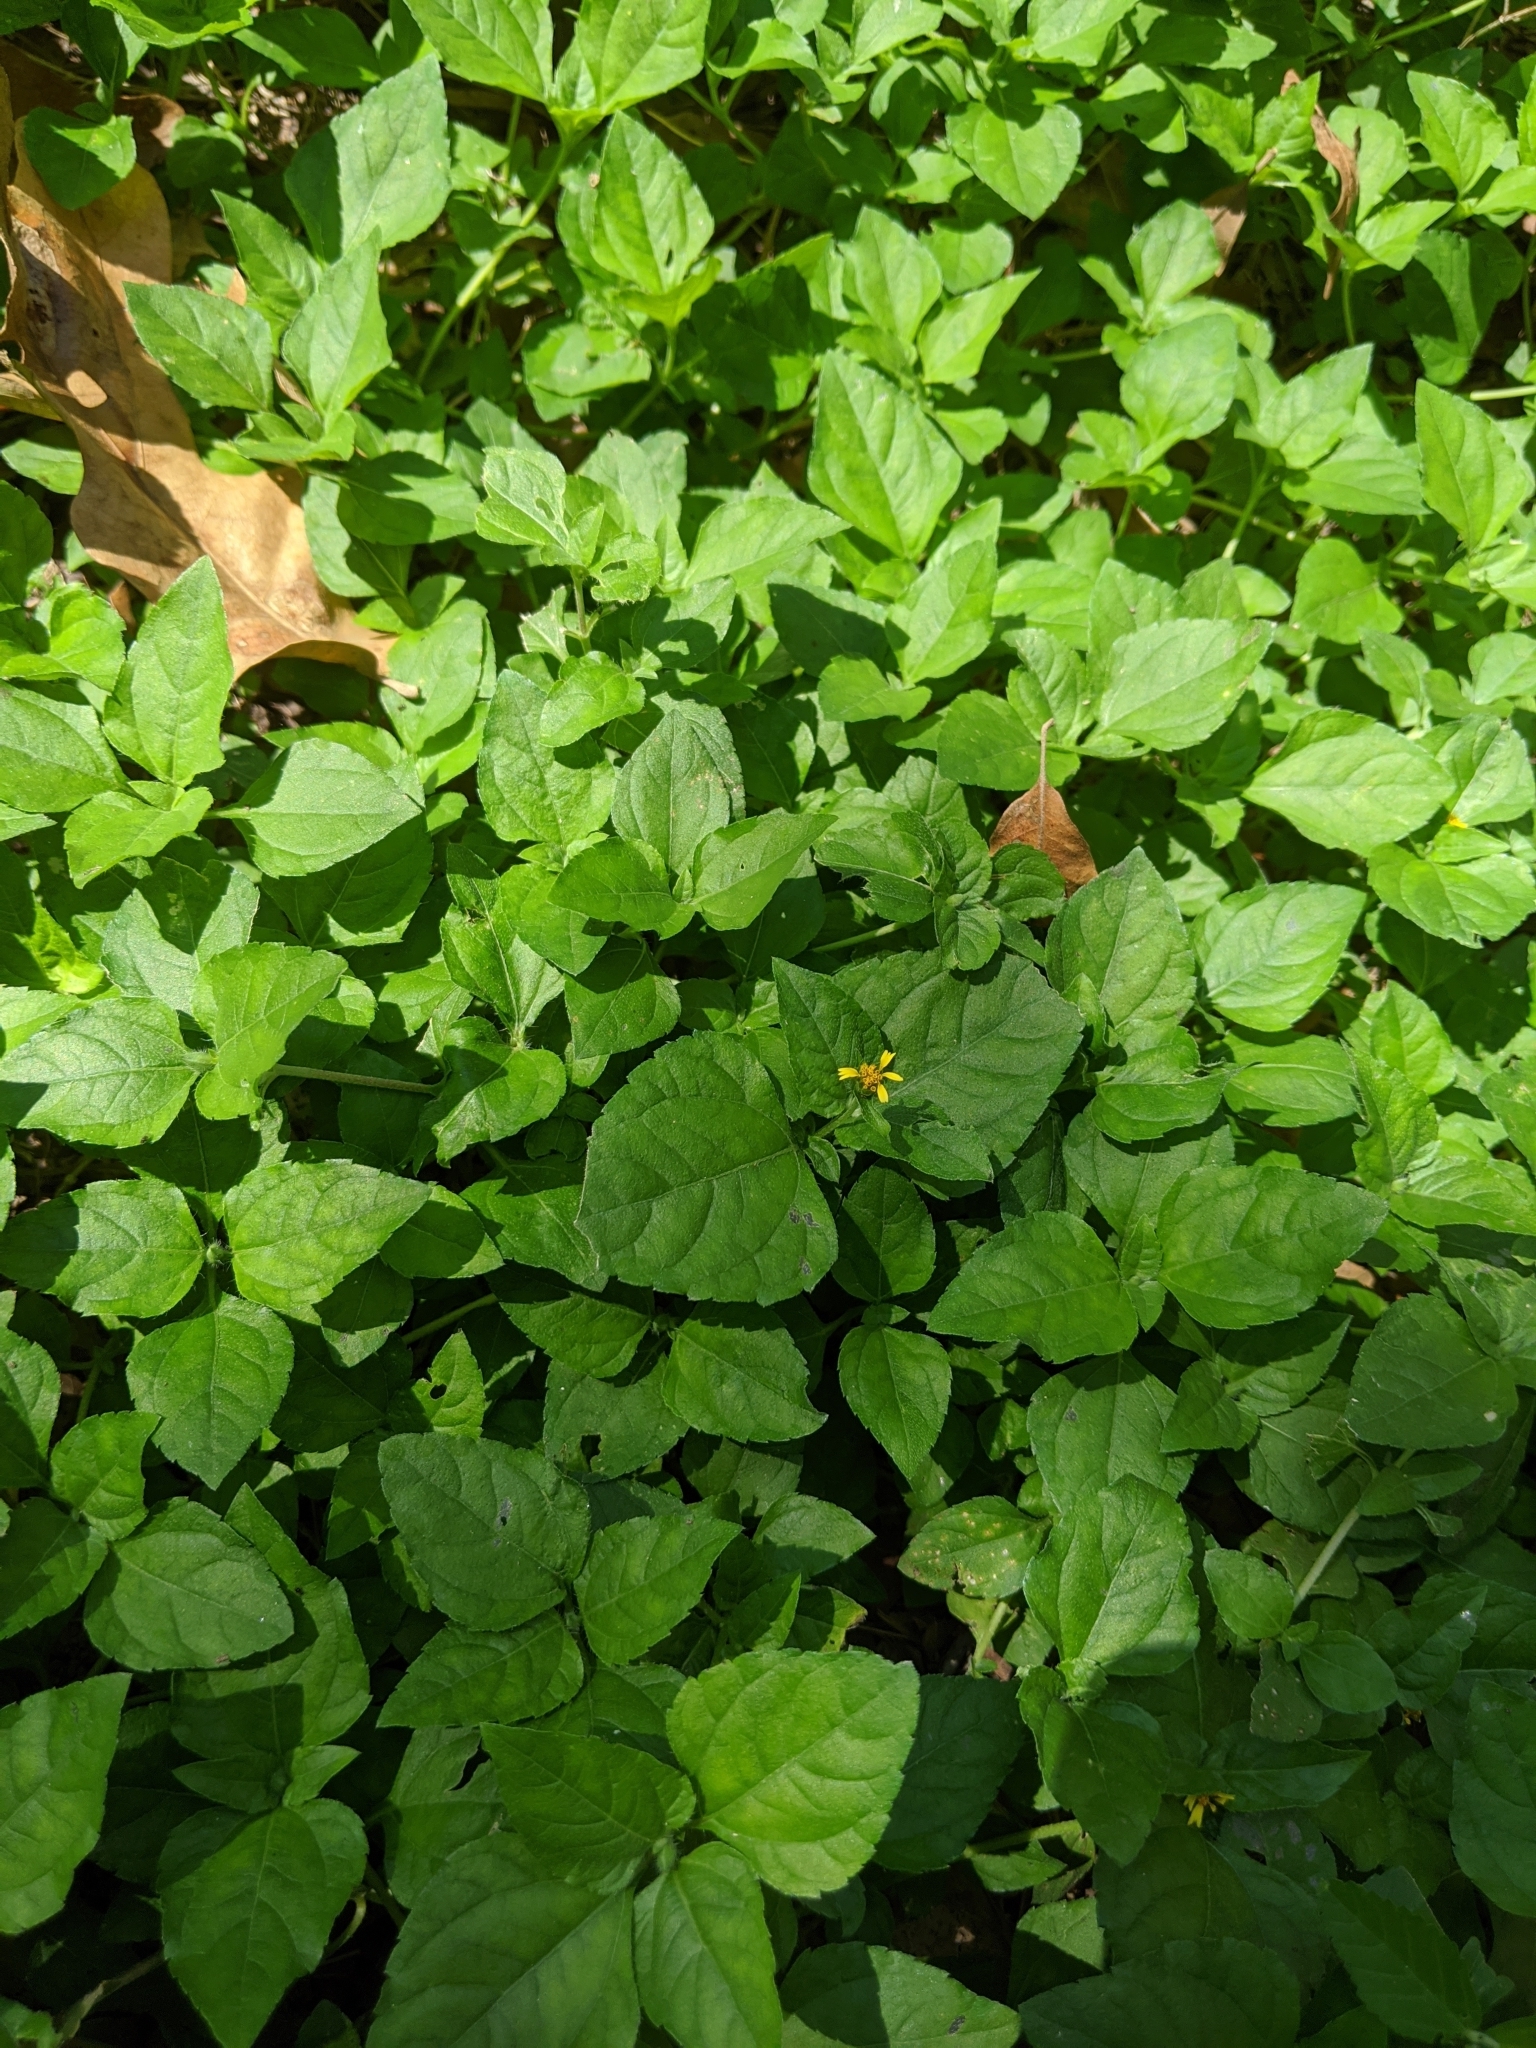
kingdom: Plantae
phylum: Tracheophyta
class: Magnoliopsida
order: Asterales
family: Asteraceae
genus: Calyptocarpus
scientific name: Calyptocarpus vialis
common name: Straggler daisy
